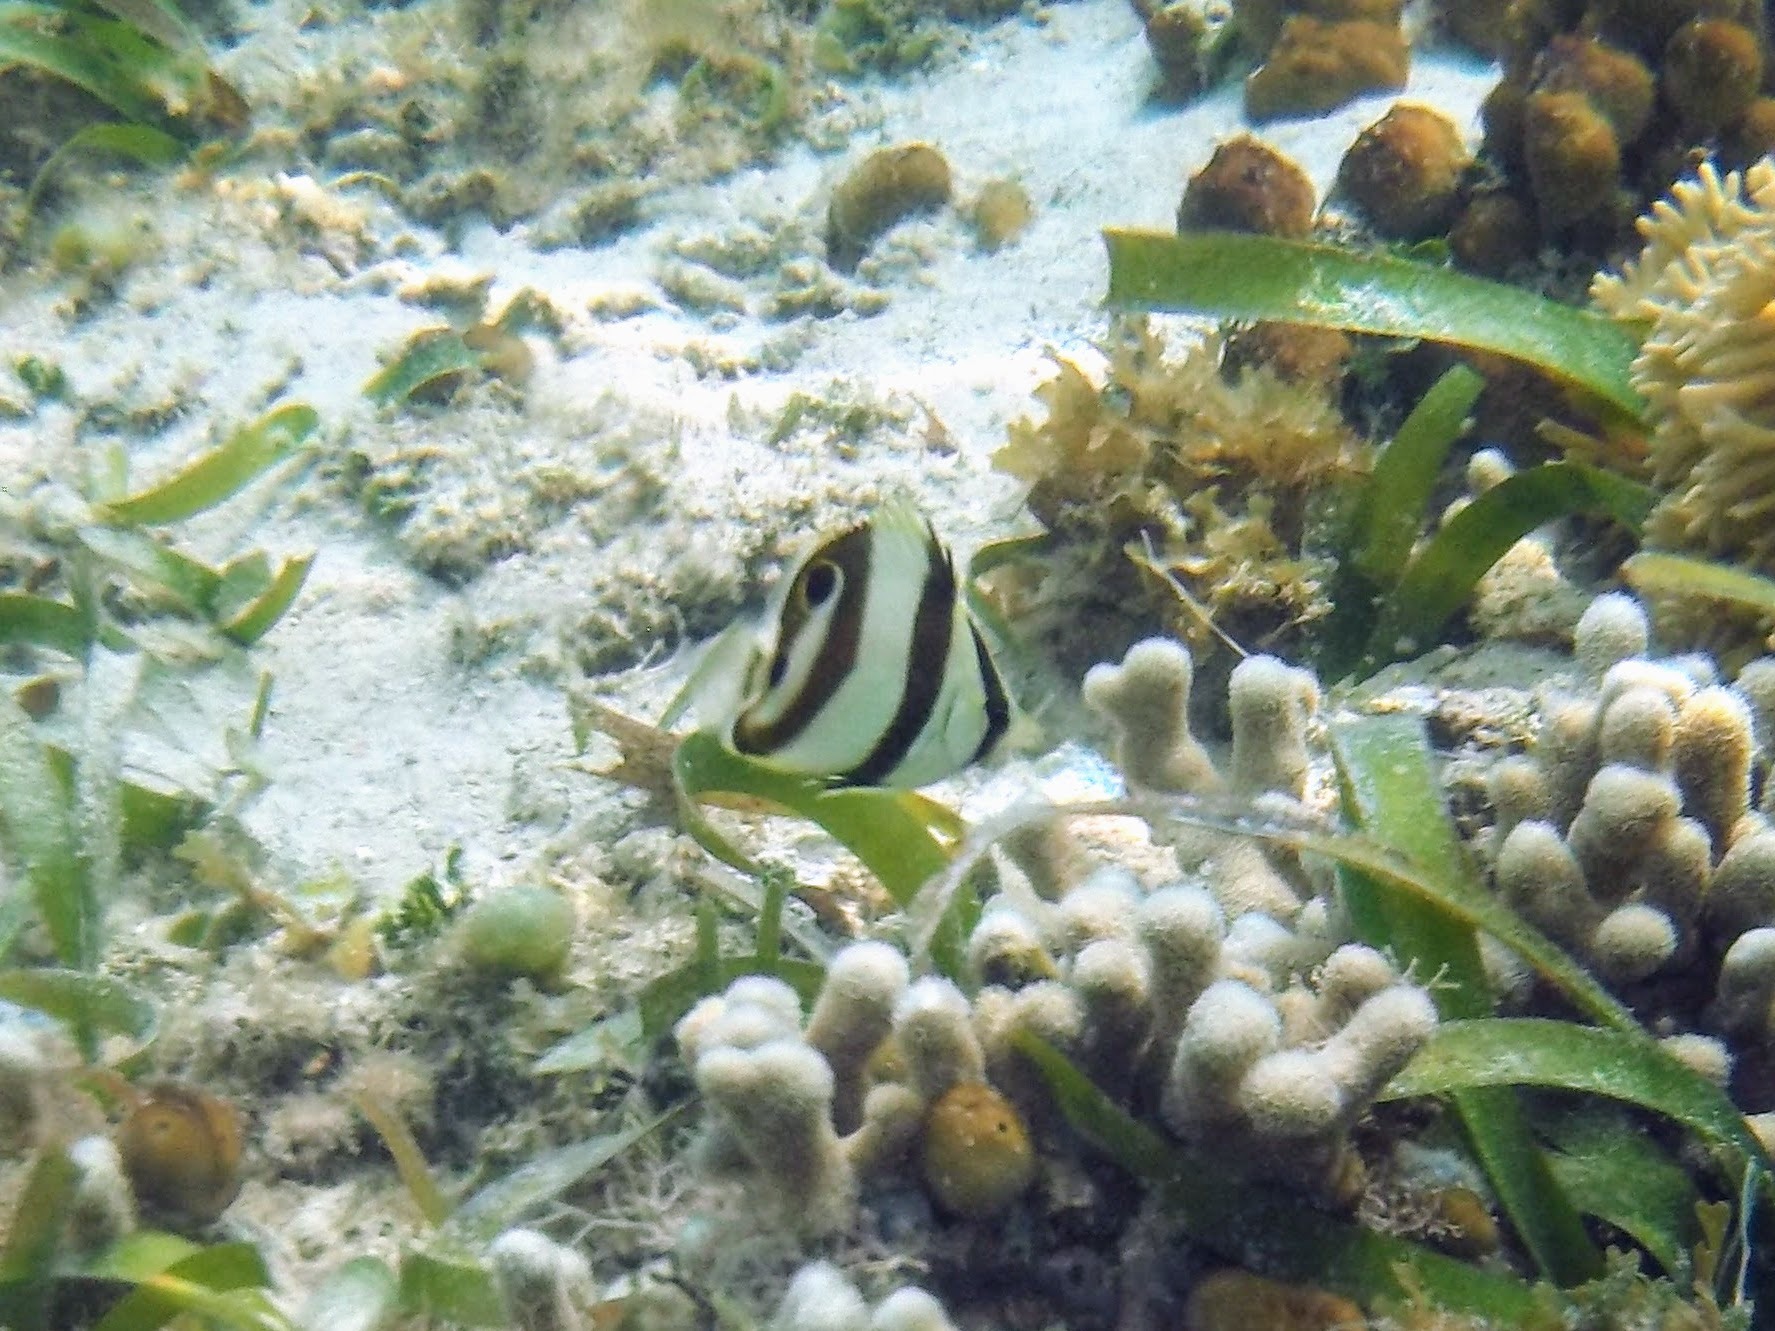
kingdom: Animalia
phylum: Chordata
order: Perciformes
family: Chaetodontidae
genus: Chaetodon
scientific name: Chaetodon striatus
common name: Banded butterflyfish
